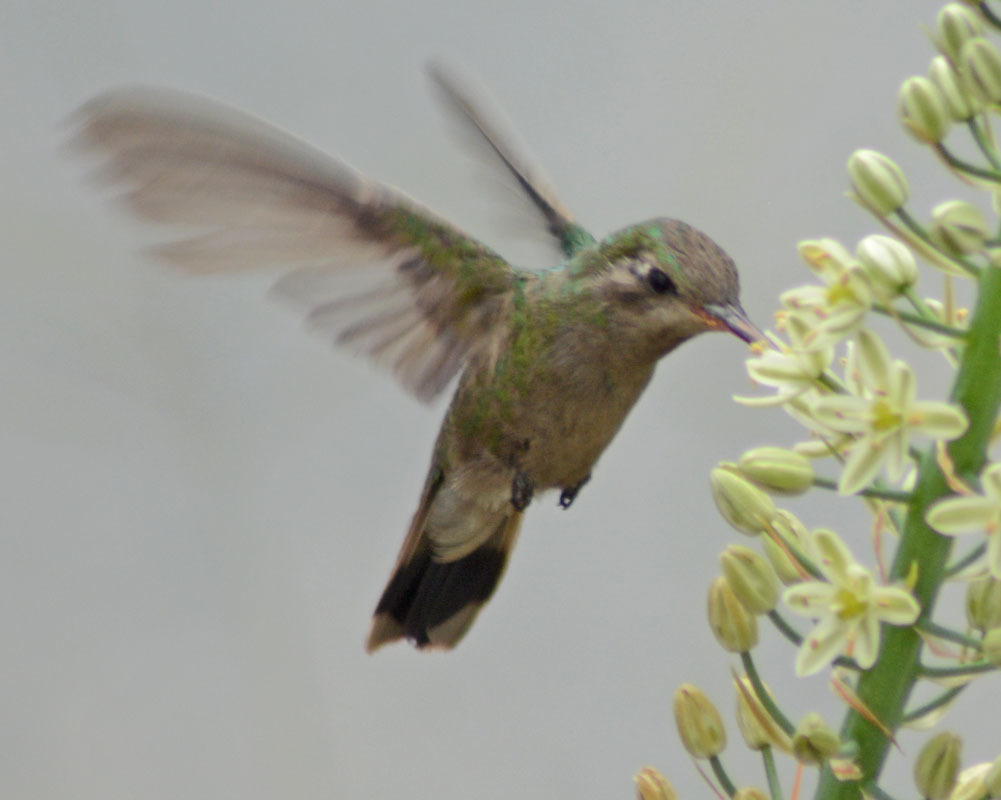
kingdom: Animalia
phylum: Chordata
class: Aves
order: Apodiformes
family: Trochilidae
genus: Cynanthus
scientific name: Cynanthus latirostris
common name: Broad-billed hummingbird
